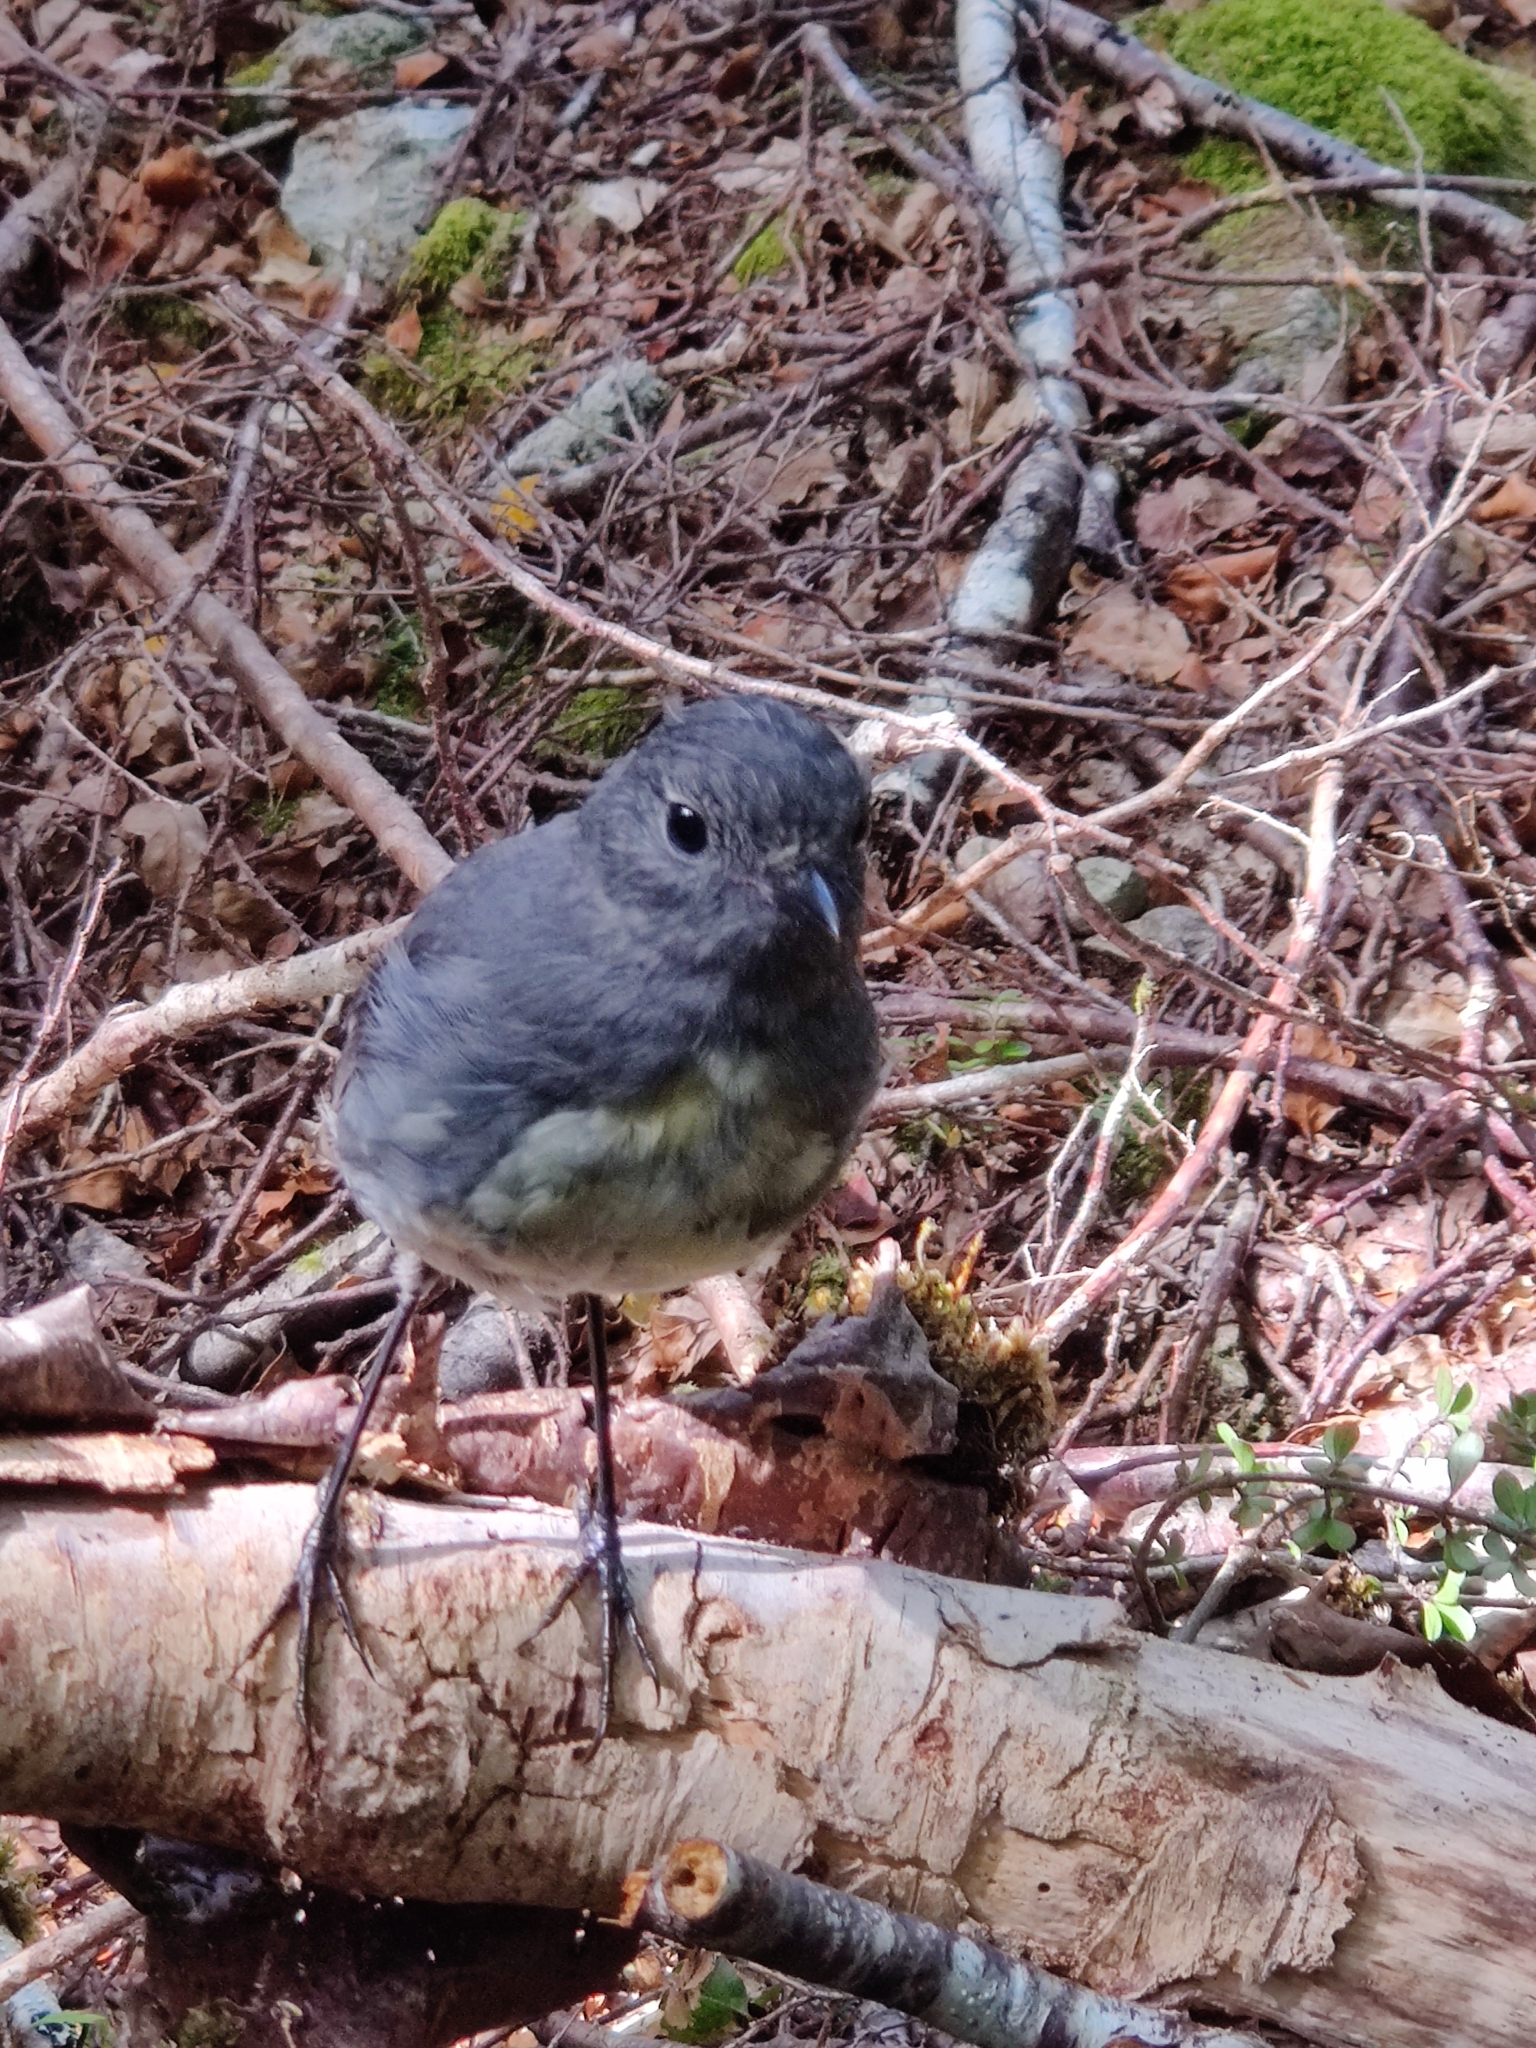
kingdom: Animalia
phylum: Chordata
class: Aves
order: Passeriformes
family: Petroicidae
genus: Petroica
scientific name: Petroica australis
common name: New zealand robin
